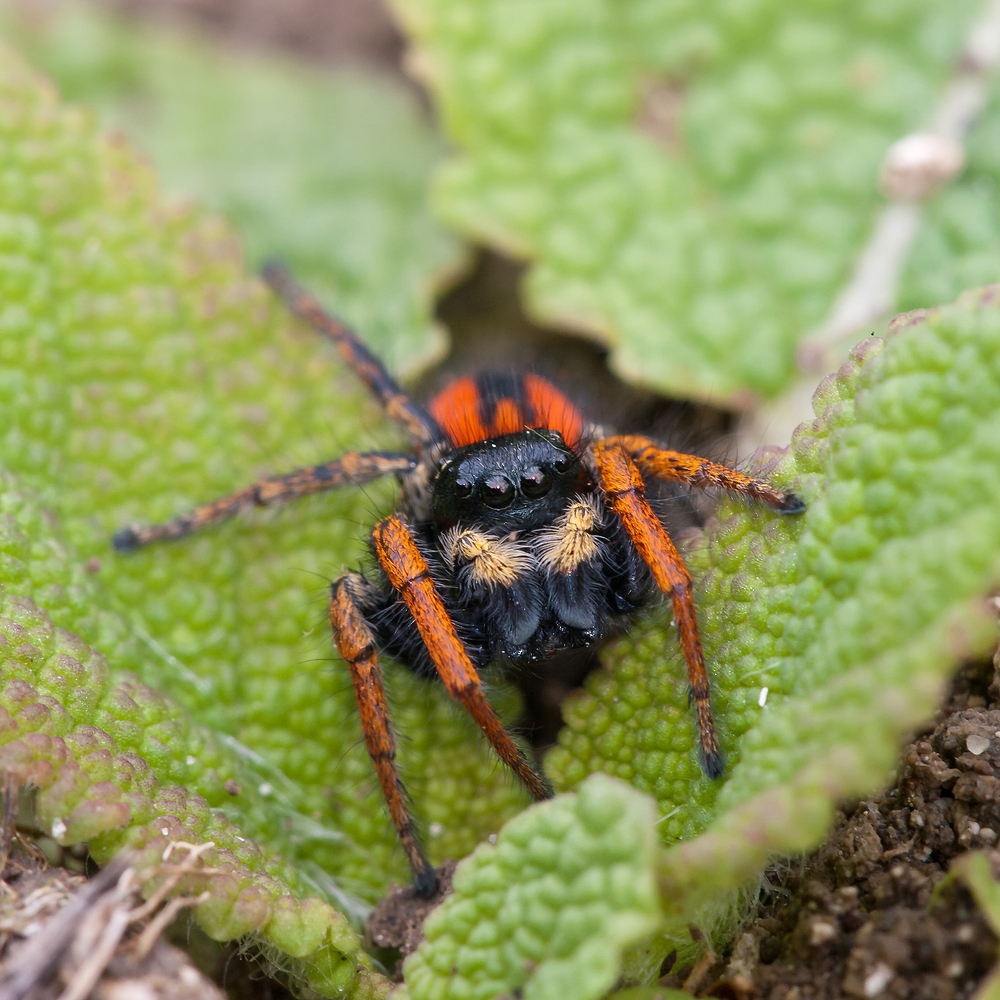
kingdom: Animalia
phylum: Arthropoda
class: Arachnida
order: Araneae
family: Salticidae
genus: Philaeus
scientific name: Philaeus chrysops
